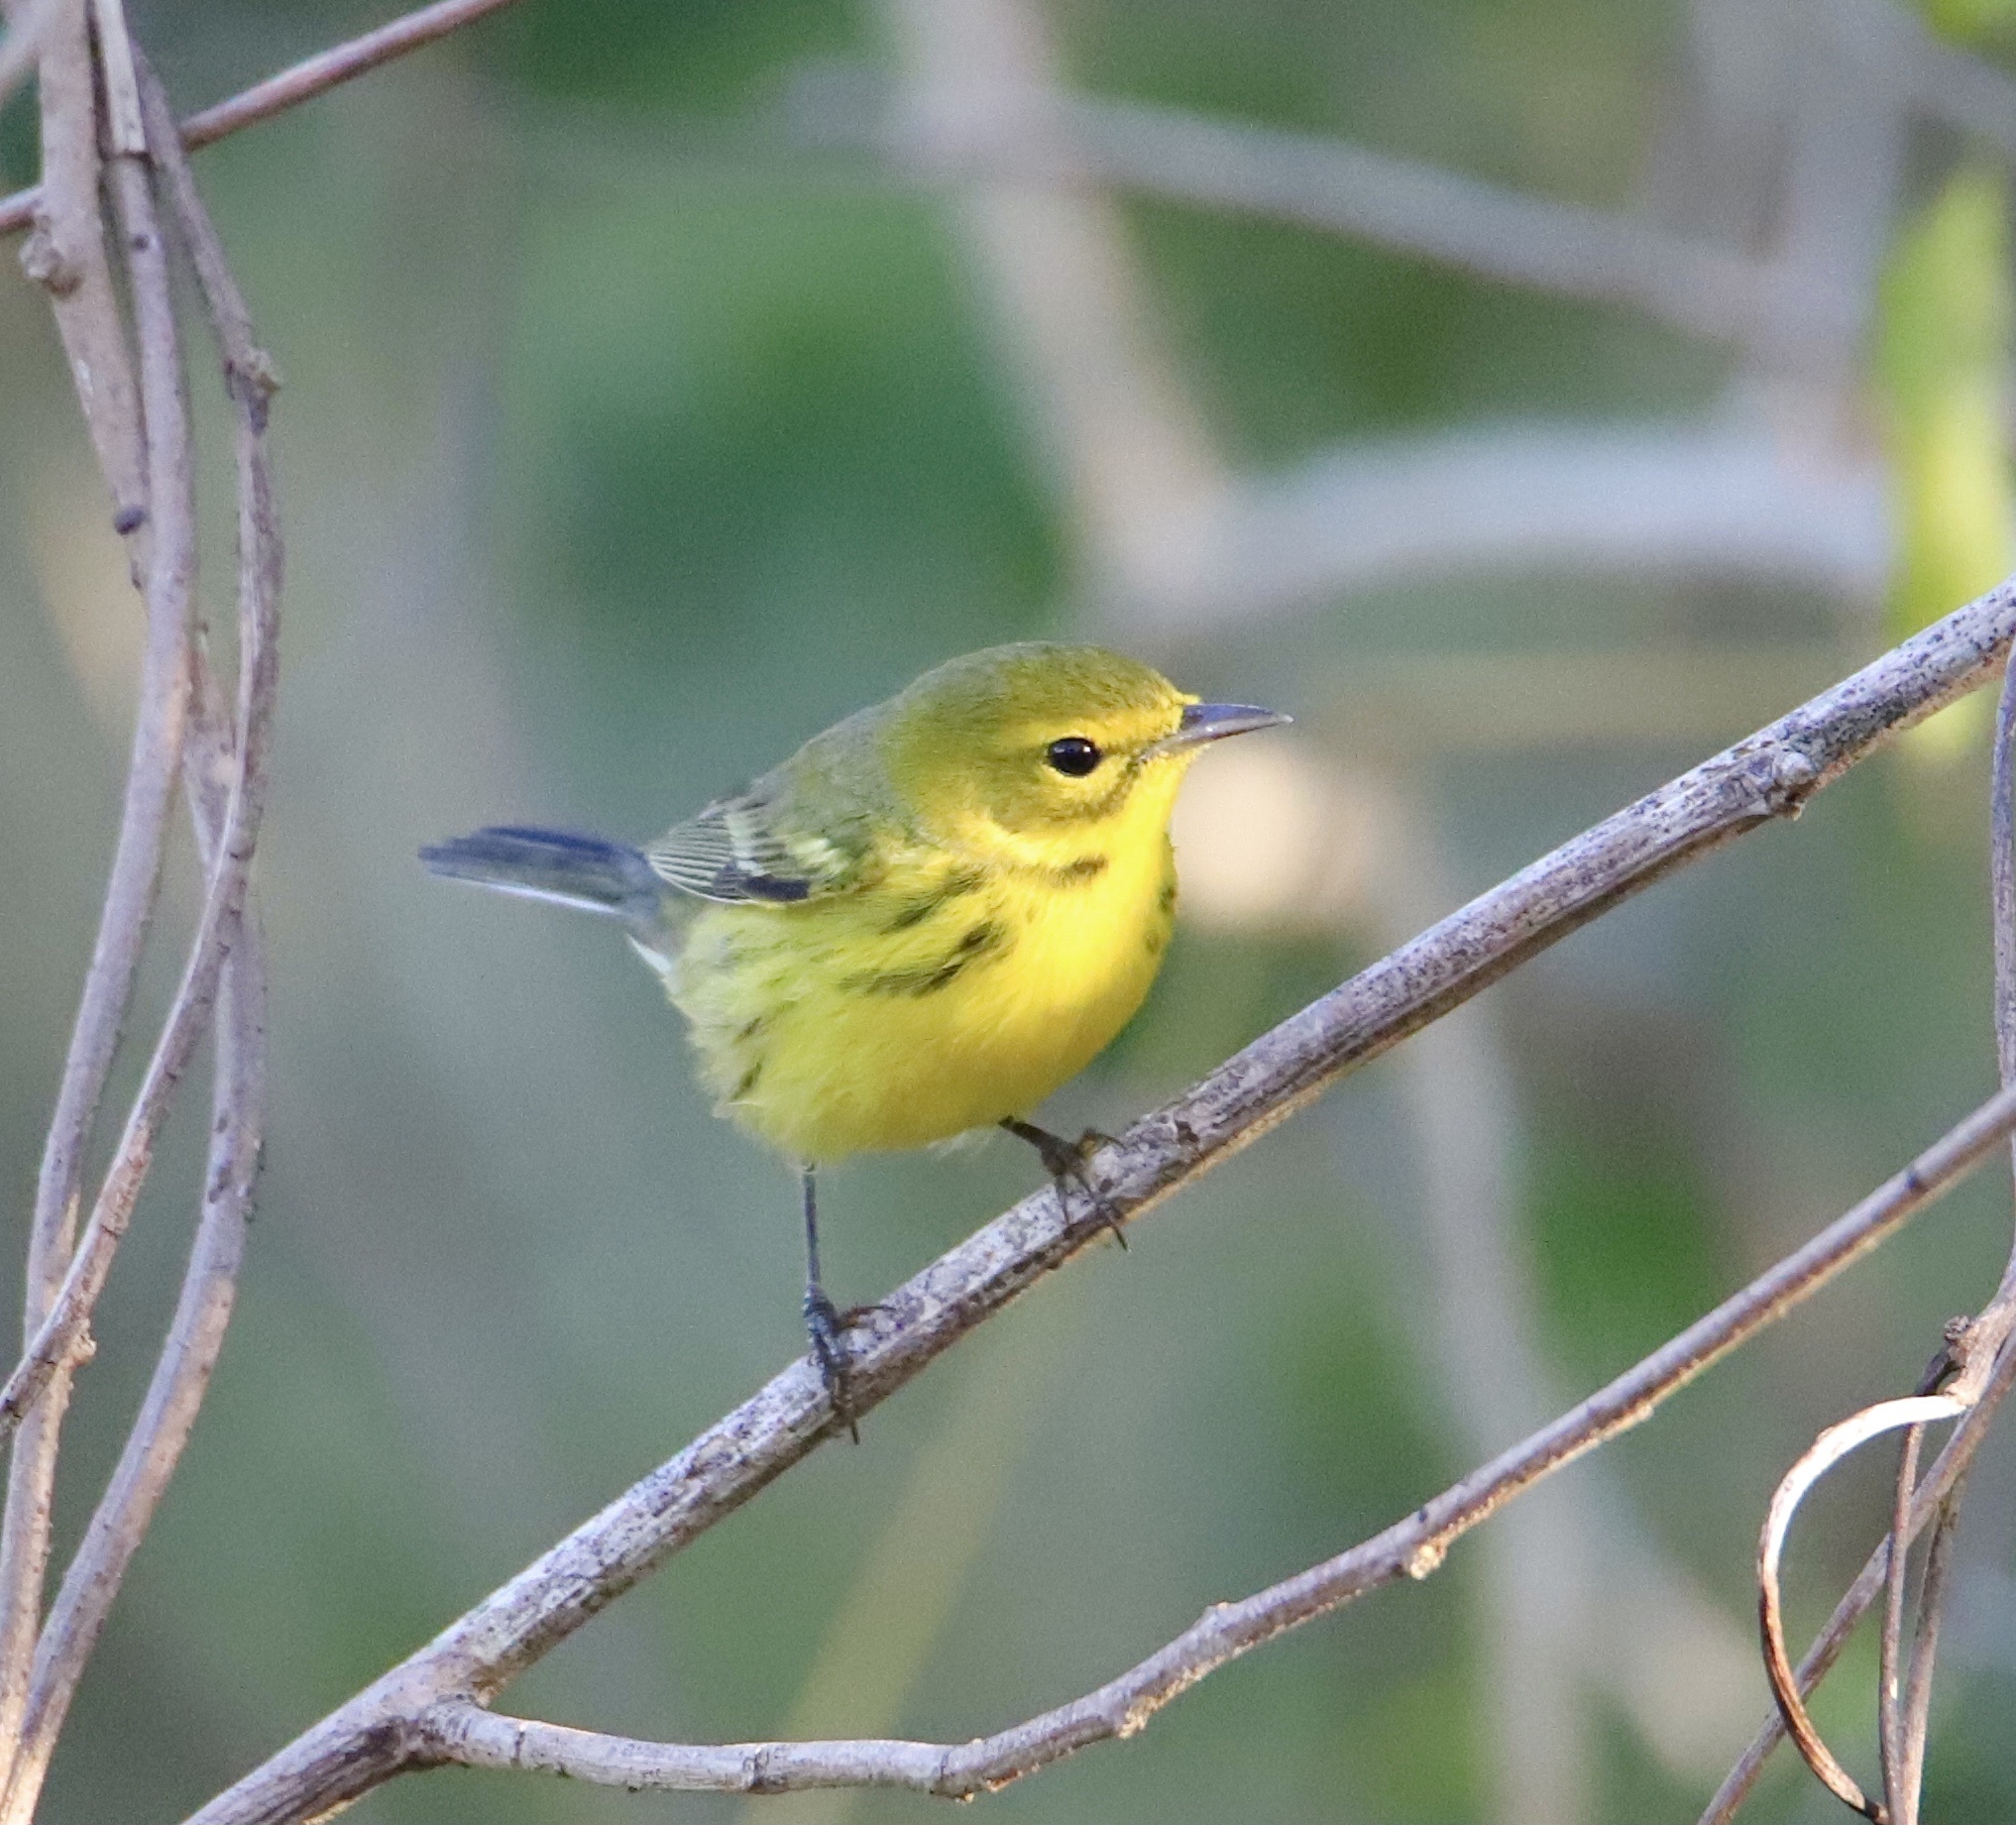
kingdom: Animalia
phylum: Chordata
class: Aves
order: Passeriformes
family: Parulidae
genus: Setophaga
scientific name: Setophaga discolor
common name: Prairie warbler
